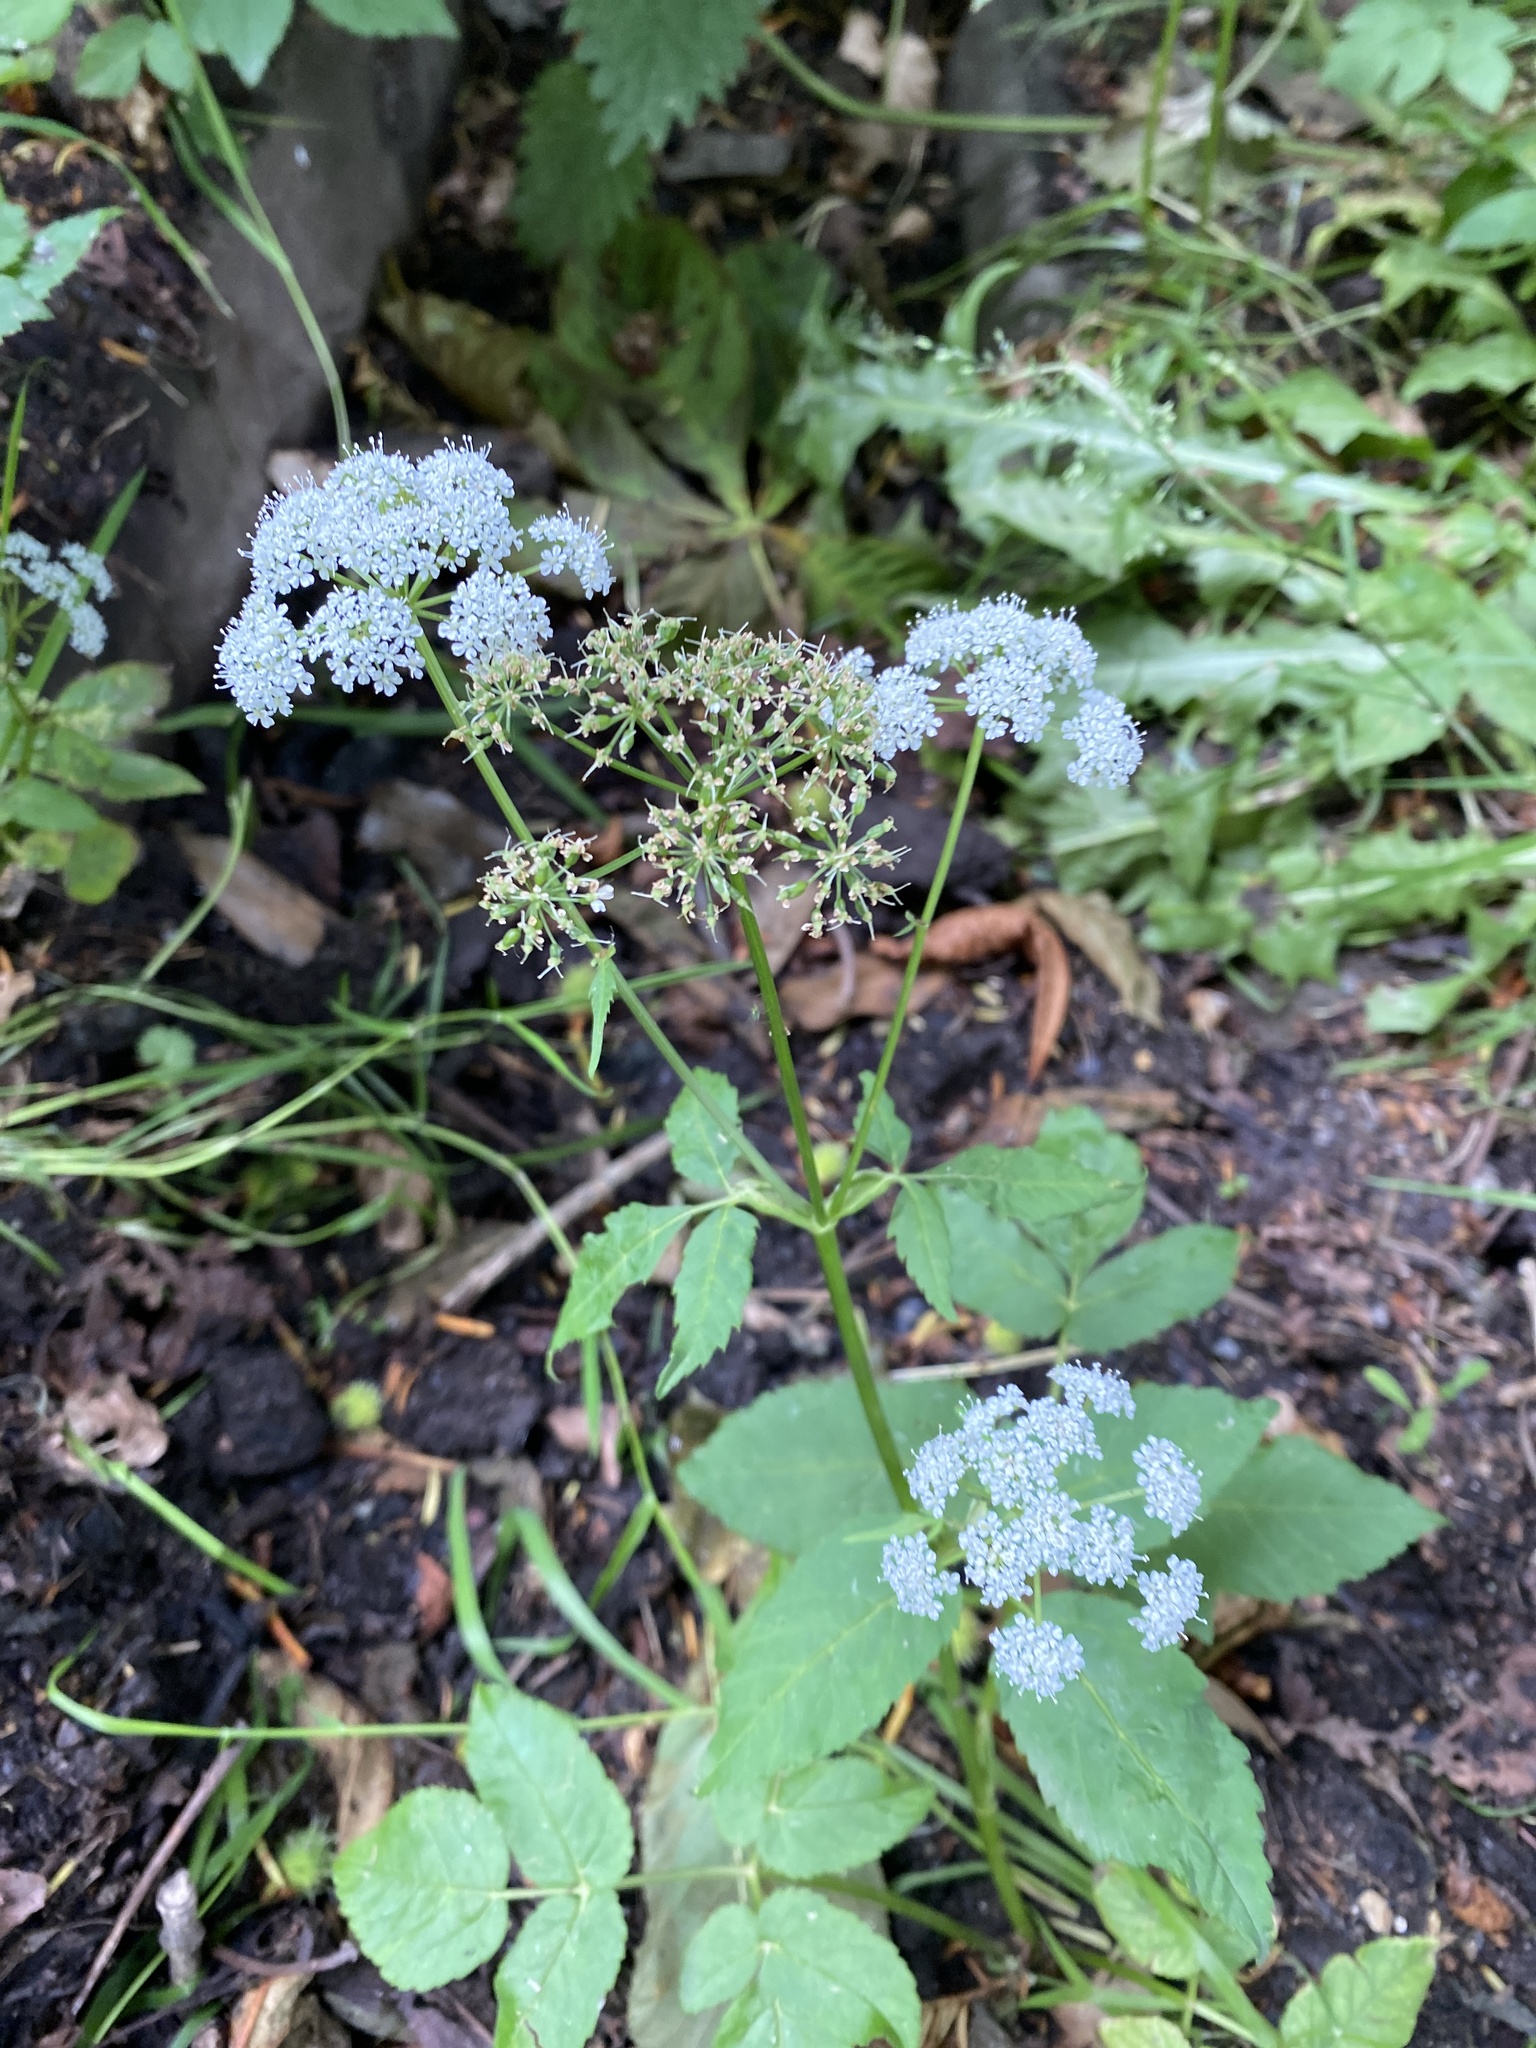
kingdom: Plantae
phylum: Tracheophyta
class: Magnoliopsida
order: Apiales
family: Apiaceae
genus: Aegopodium
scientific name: Aegopodium podagraria
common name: Ground-elder
